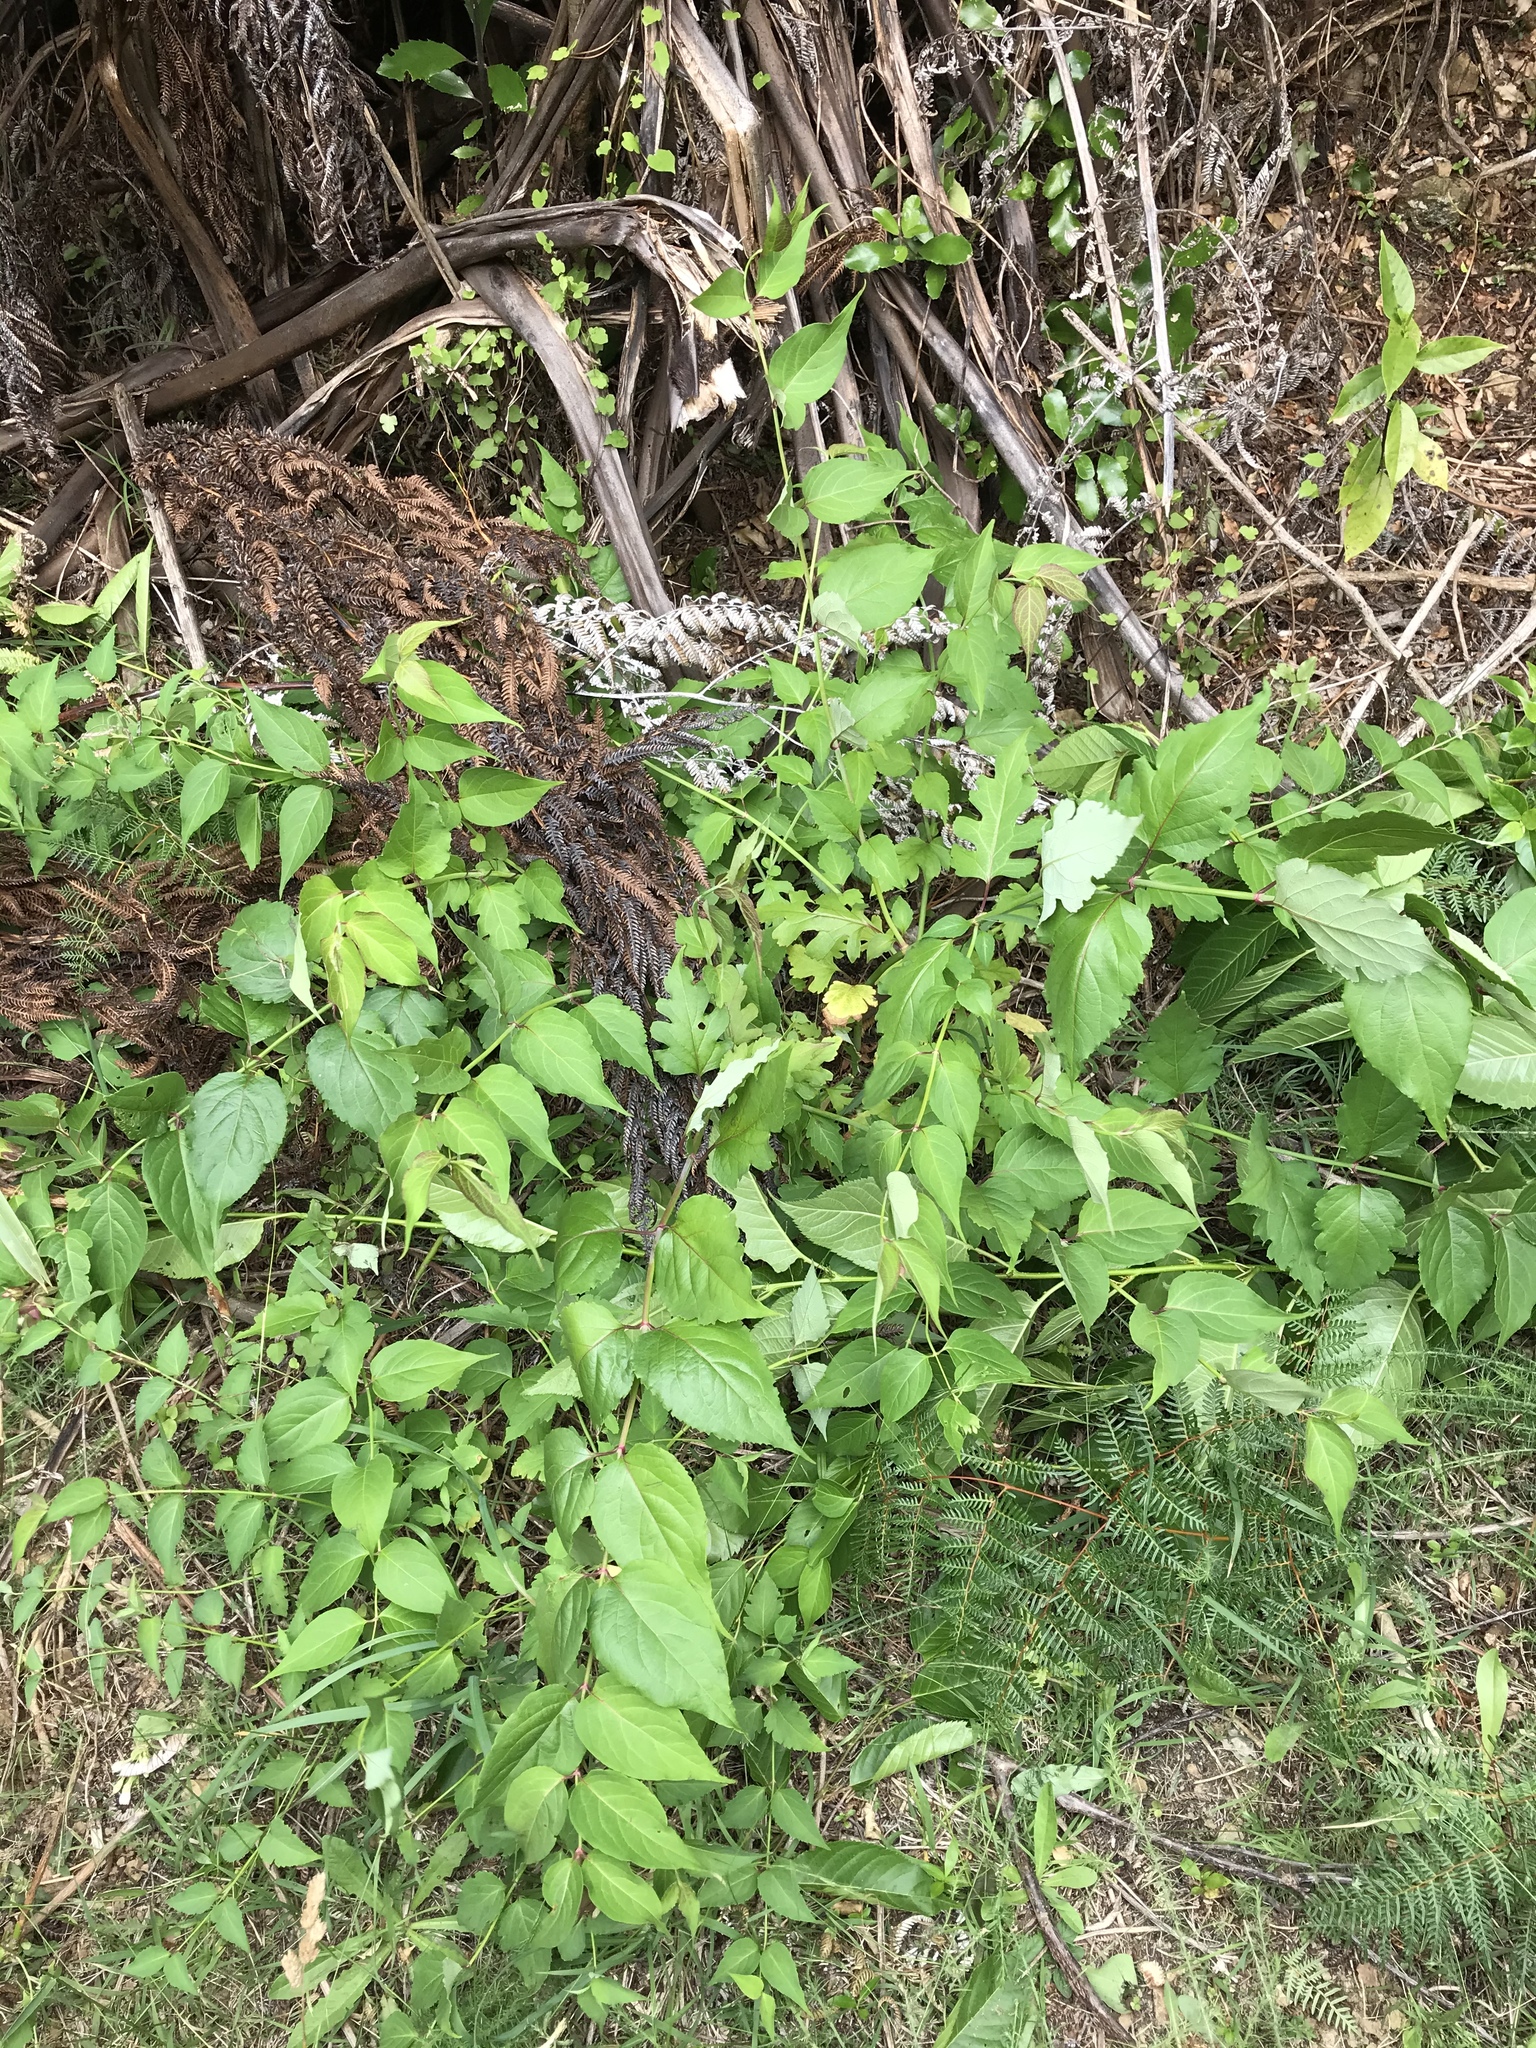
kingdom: Plantae
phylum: Tracheophyta
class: Magnoliopsida
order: Dipsacales
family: Caprifoliaceae
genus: Leycesteria
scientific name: Leycesteria formosa
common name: Himalayan honeysuckle
